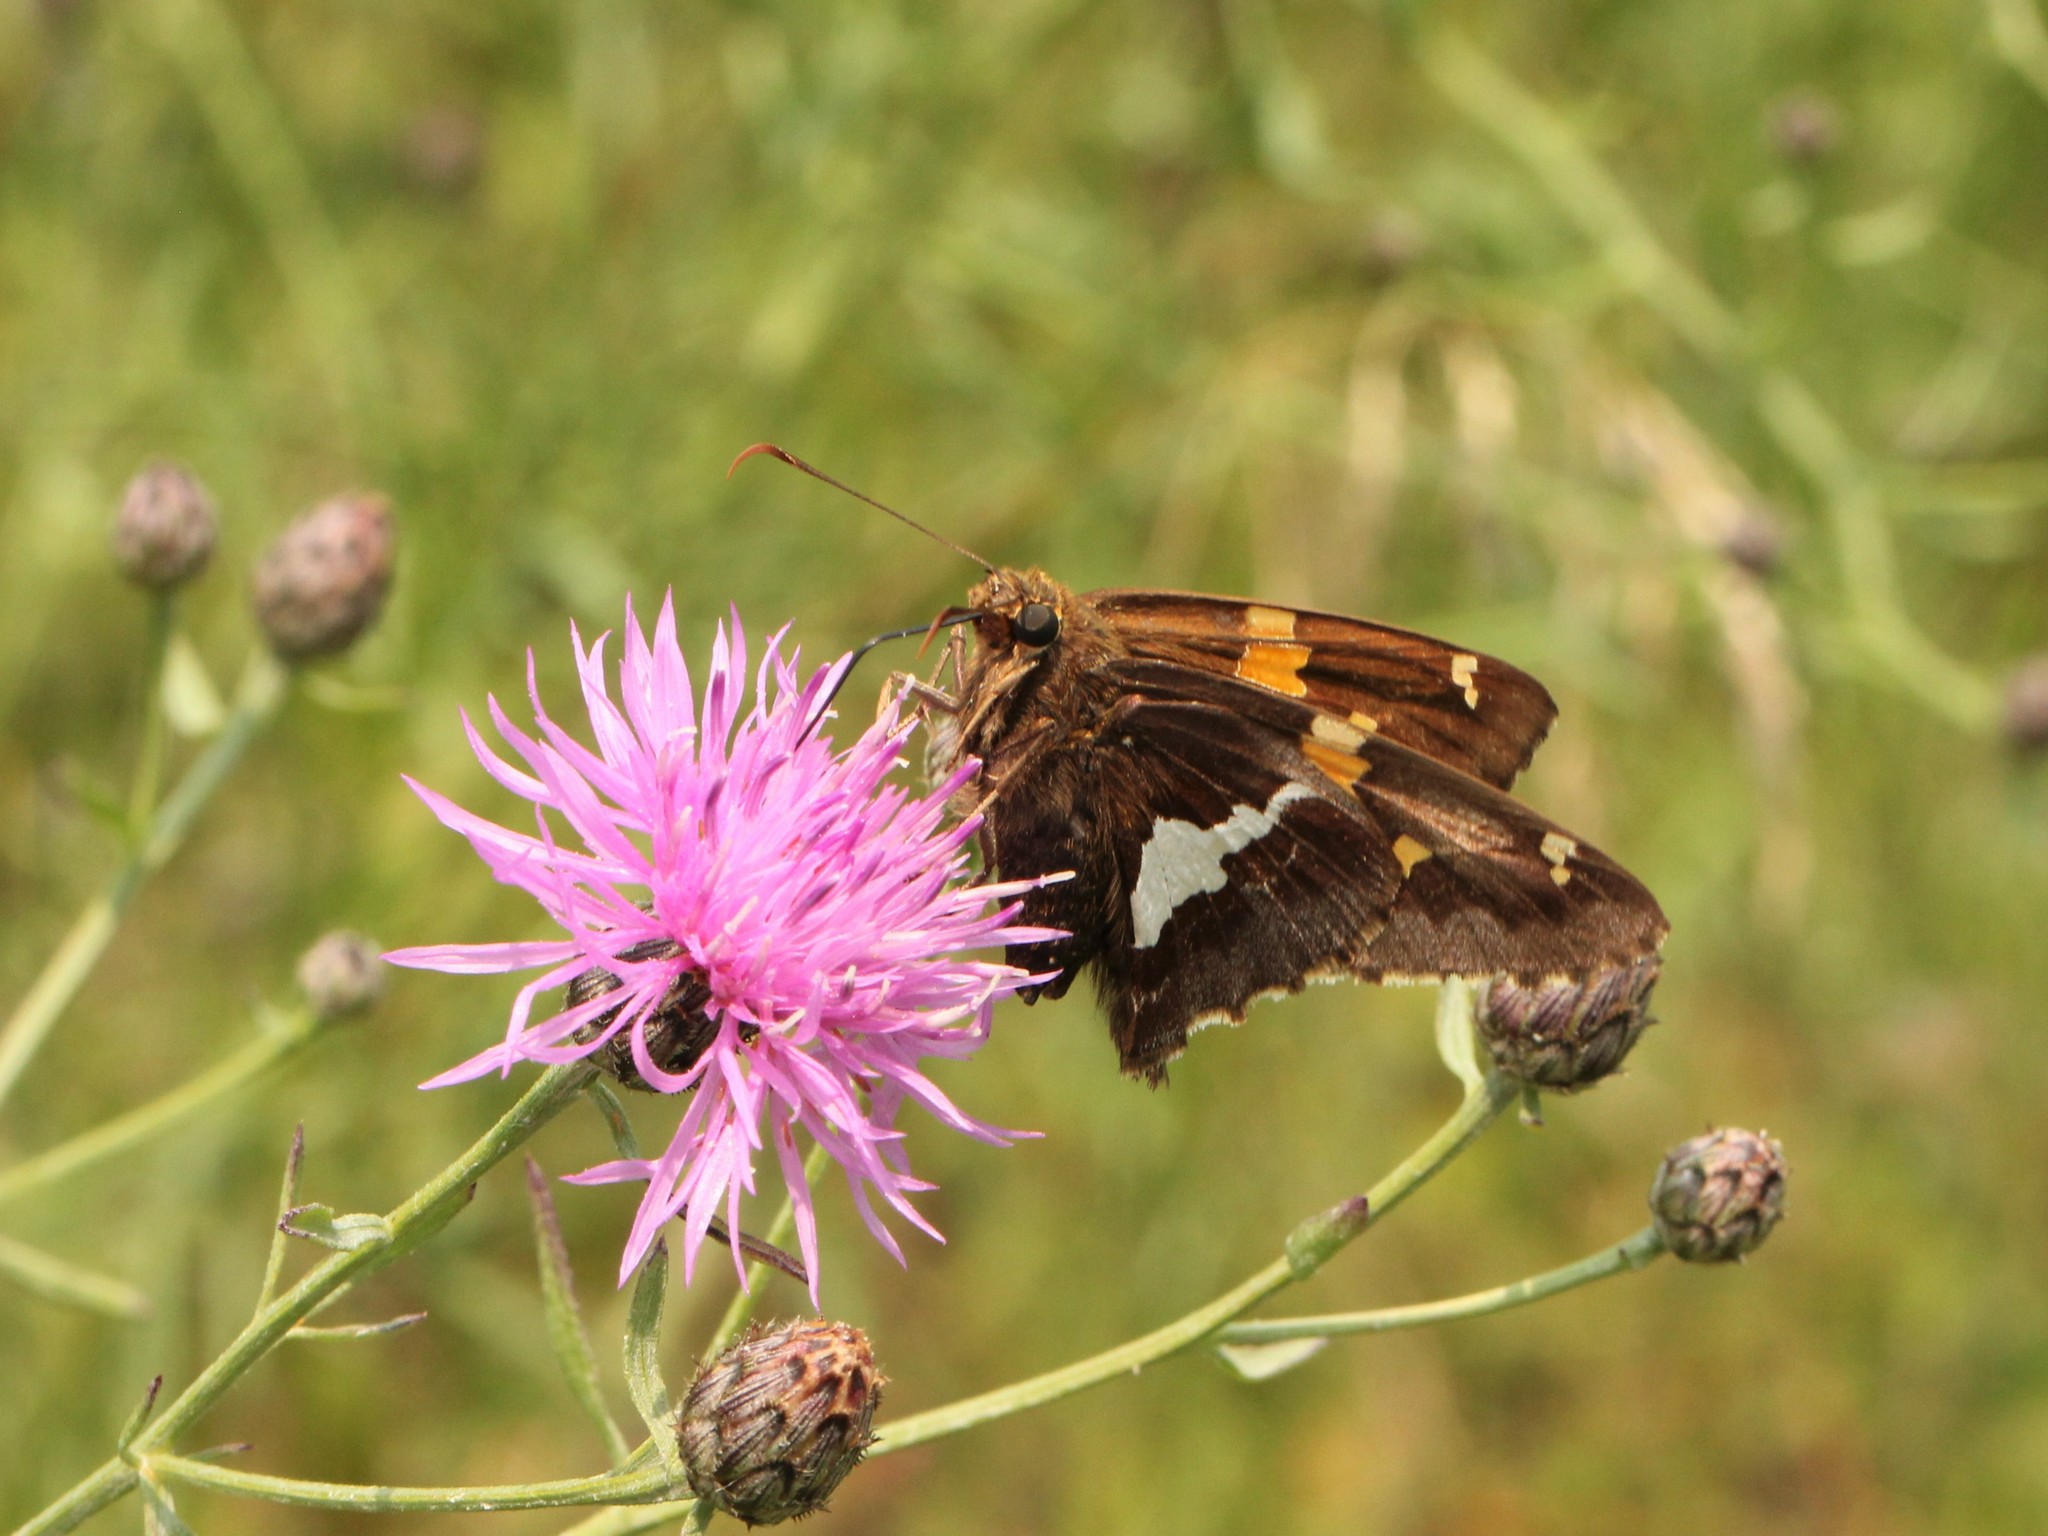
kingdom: Animalia
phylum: Arthropoda
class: Insecta
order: Lepidoptera
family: Hesperiidae
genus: Epargyreus
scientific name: Epargyreus clarus
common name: Silver-spotted skipper
